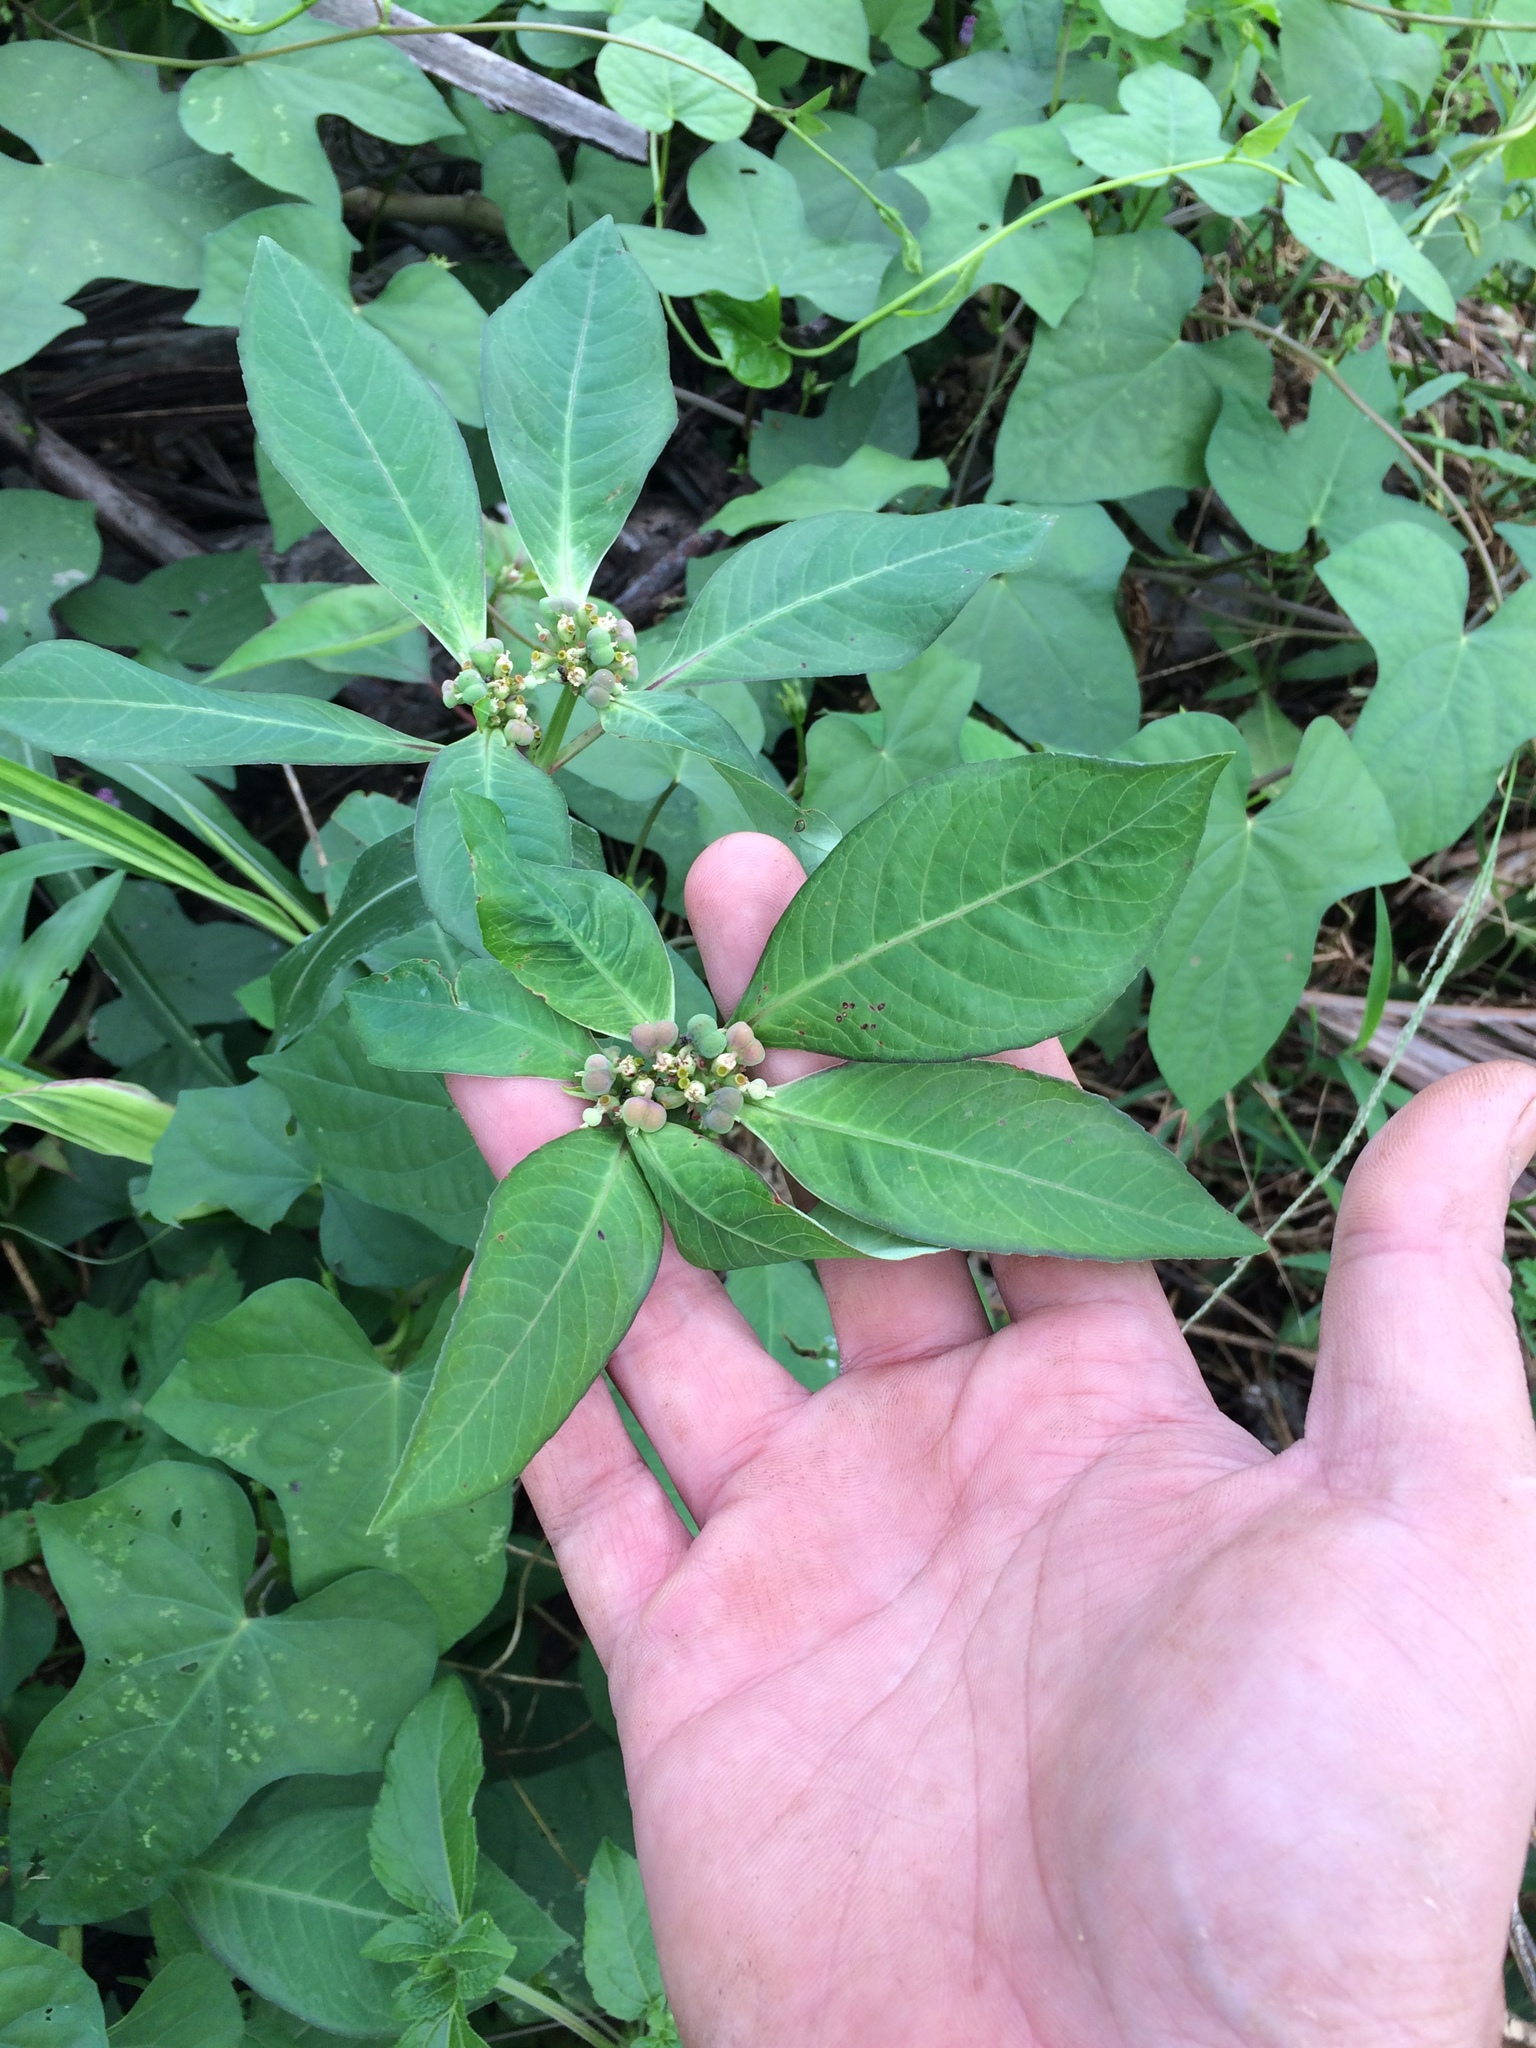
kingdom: Plantae
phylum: Tracheophyta
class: Magnoliopsida
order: Malpighiales
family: Euphorbiaceae
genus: Euphorbia
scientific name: Euphorbia heterophylla
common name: Mexican fireplant
